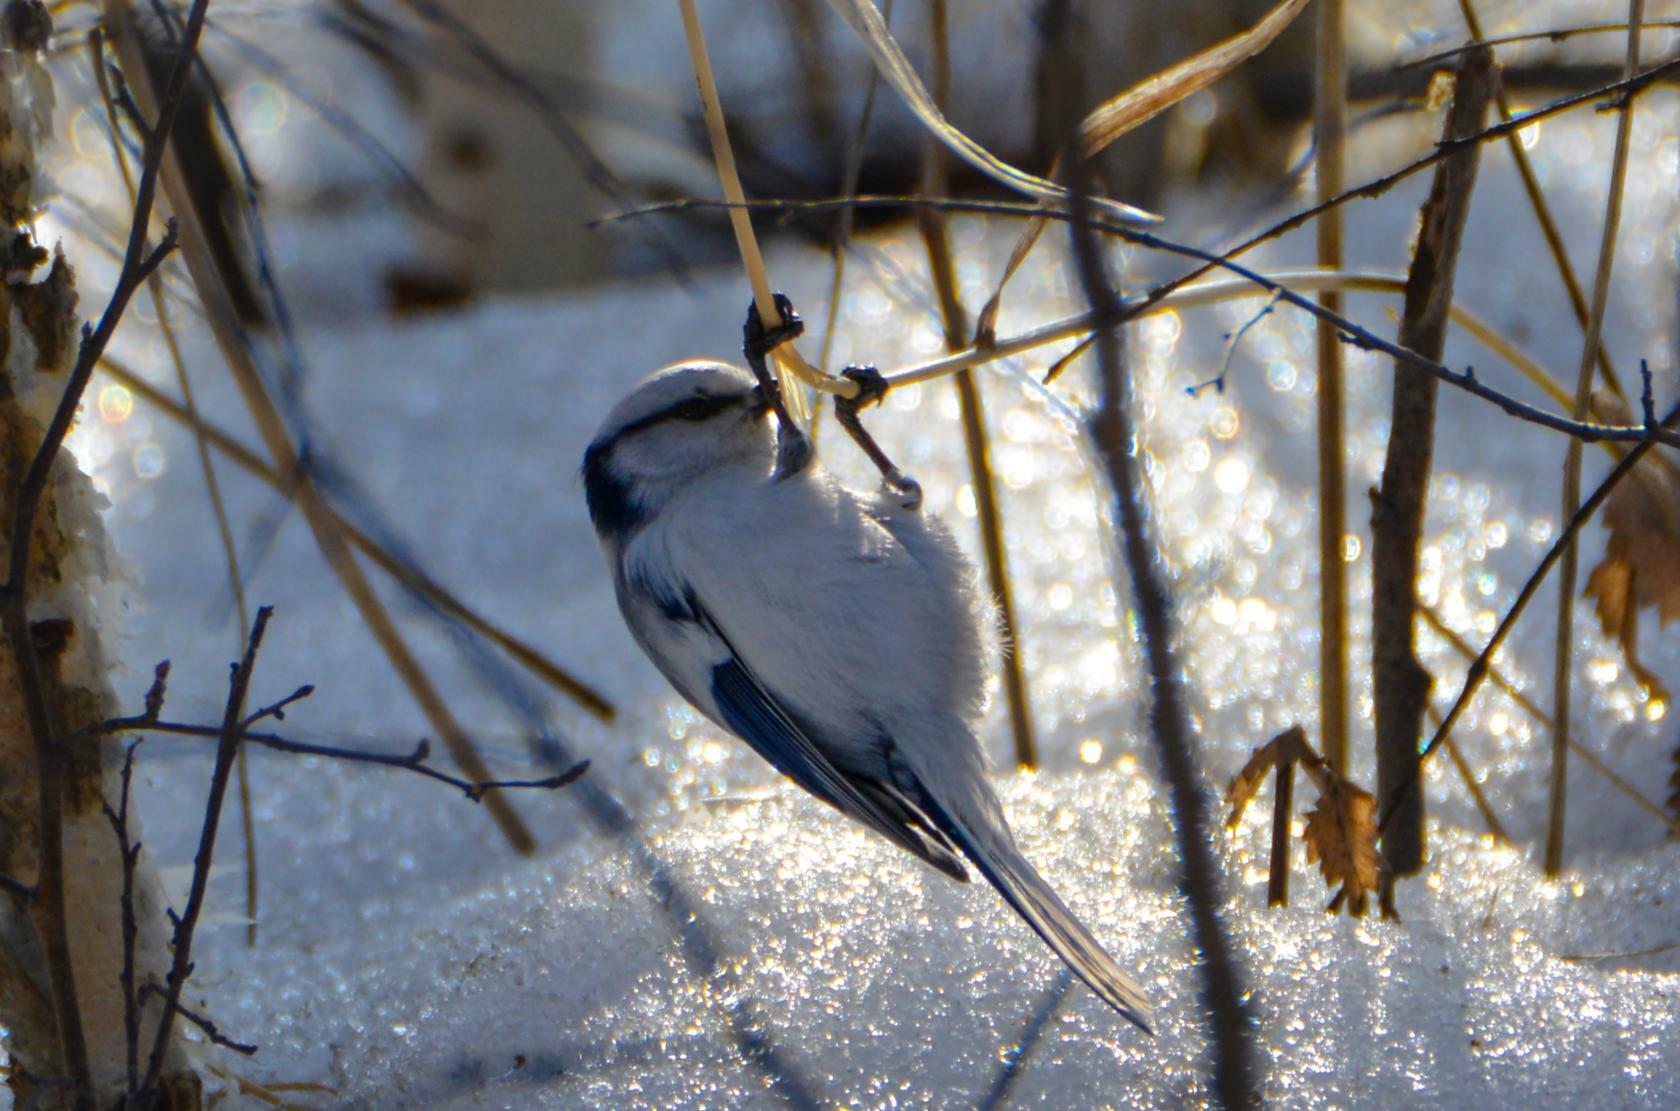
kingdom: Animalia
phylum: Chordata
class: Aves
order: Passeriformes
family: Paridae
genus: Cyanistes
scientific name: Cyanistes cyanus
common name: Azure tit
